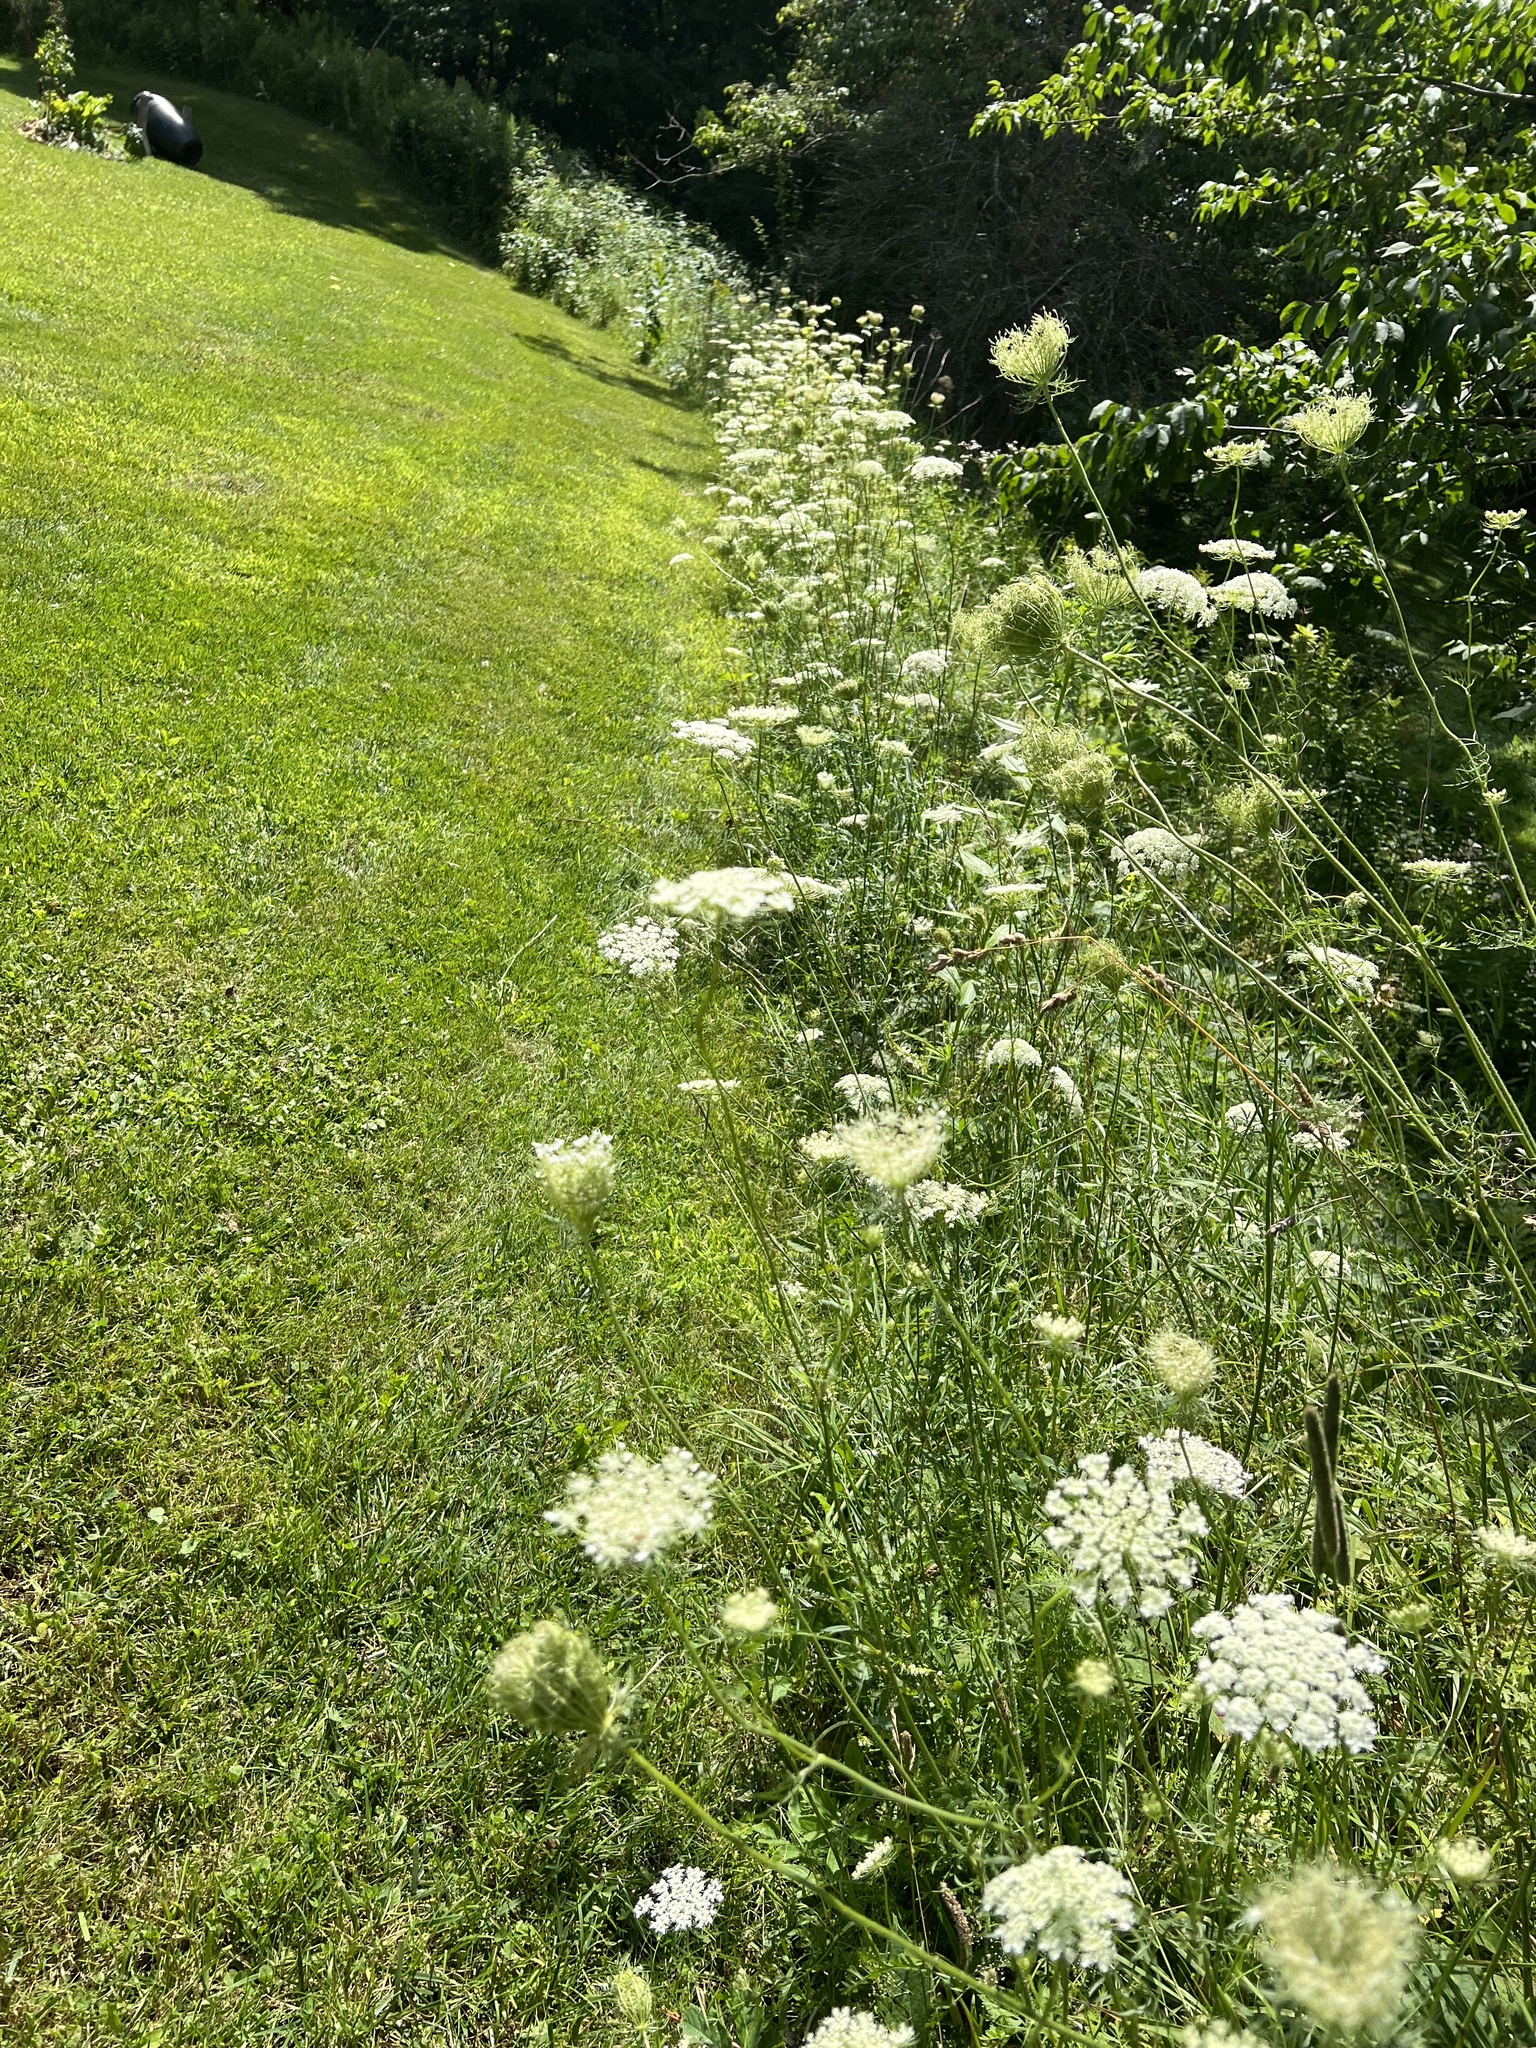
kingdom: Plantae
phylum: Tracheophyta
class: Magnoliopsida
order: Apiales
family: Apiaceae
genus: Daucus
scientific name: Daucus carota
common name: Wild carrot
